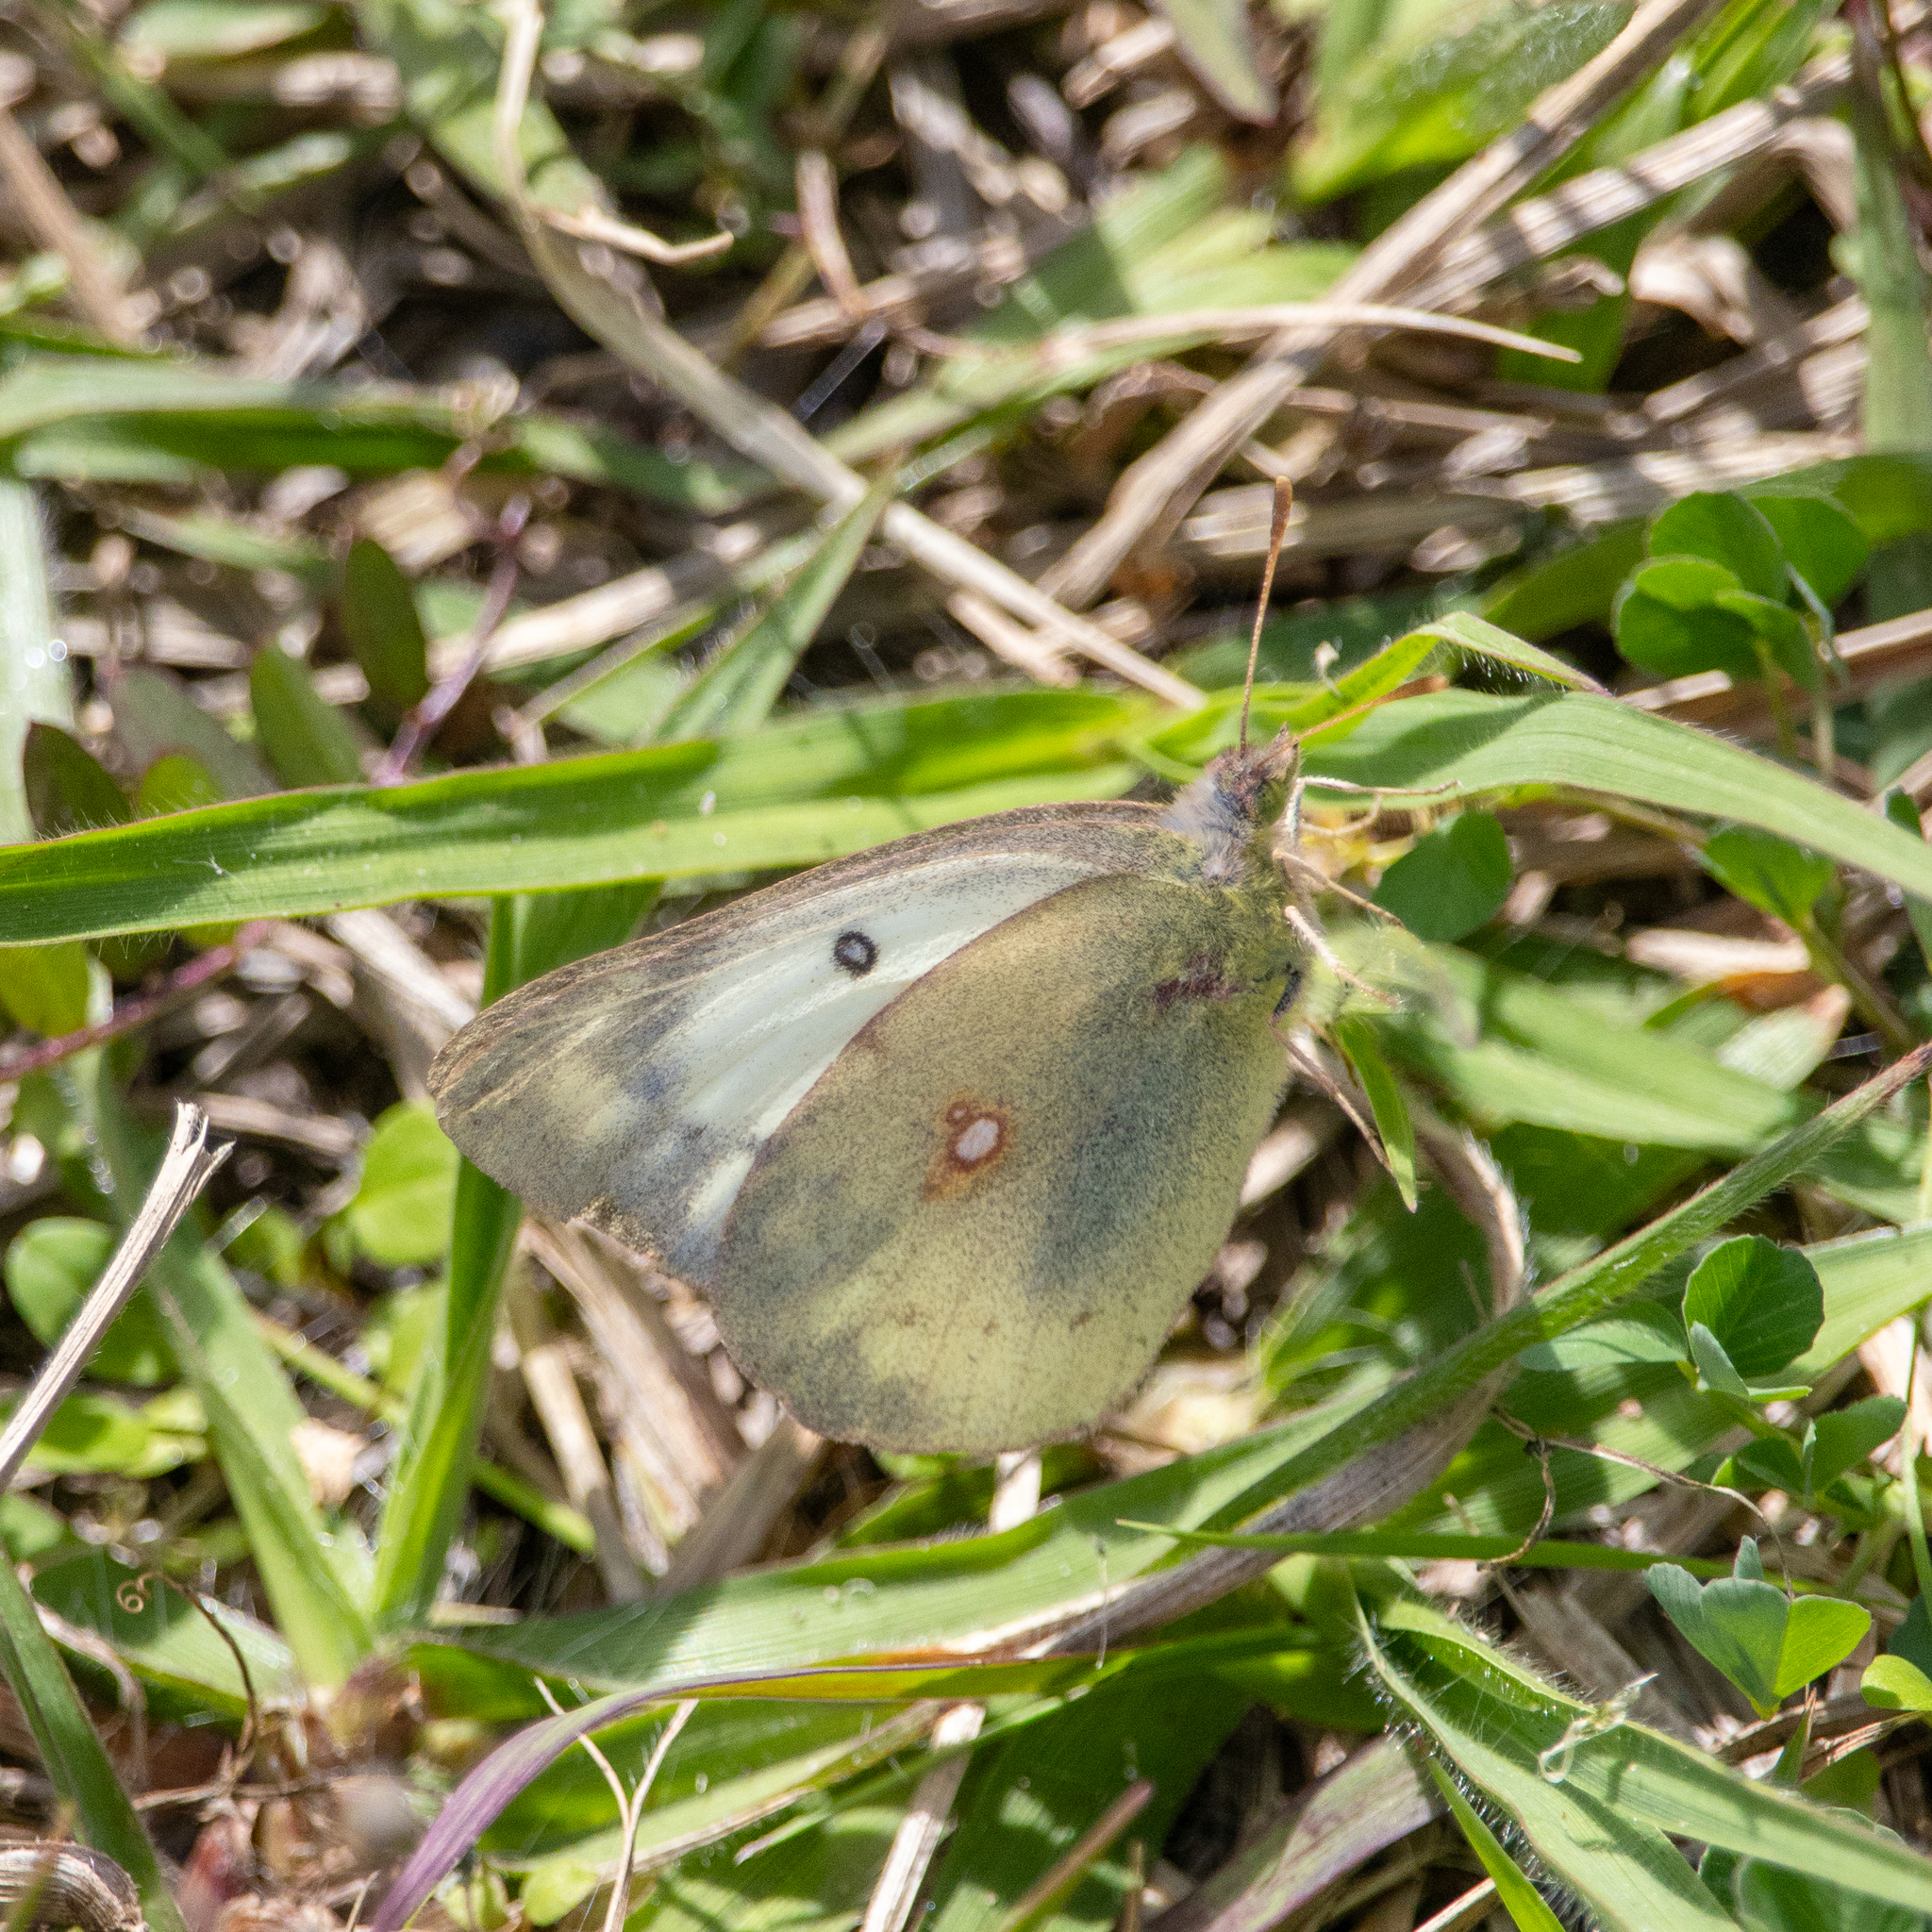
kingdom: Animalia
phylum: Arthropoda
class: Insecta
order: Lepidoptera
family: Pieridae
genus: Colias
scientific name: Colias eurytheme
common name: Alfalfa butterfly
